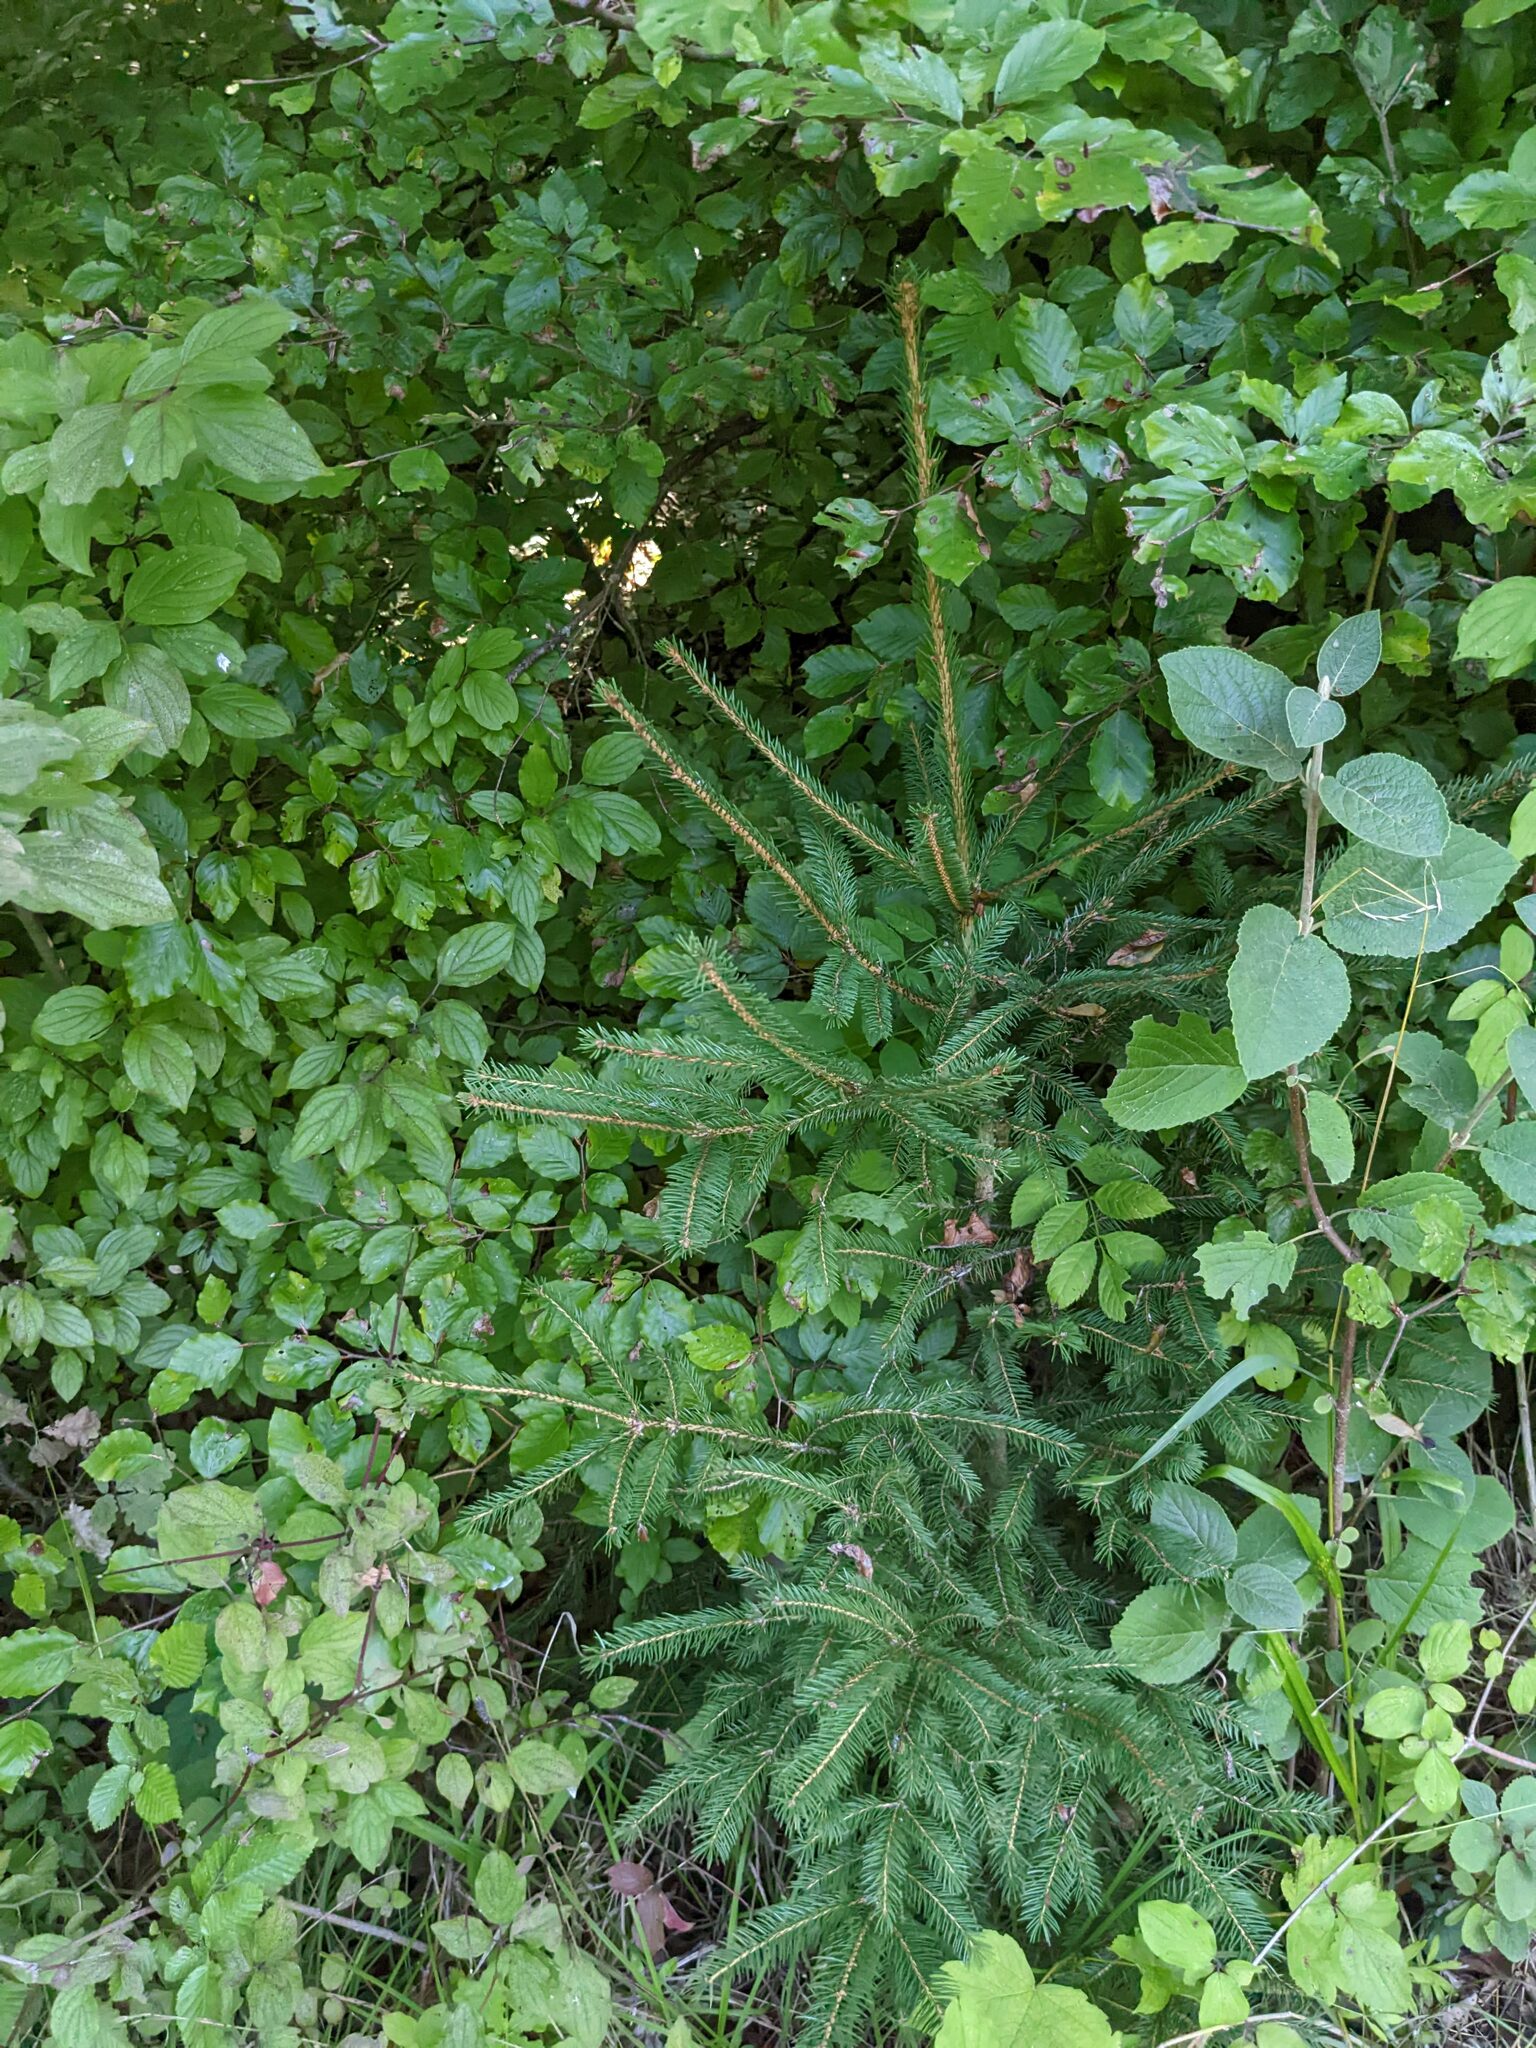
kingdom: Plantae
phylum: Tracheophyta
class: Pinopsida
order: Pinales
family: Pinaceae
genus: Picea
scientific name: Picea abies
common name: Norway spruce
